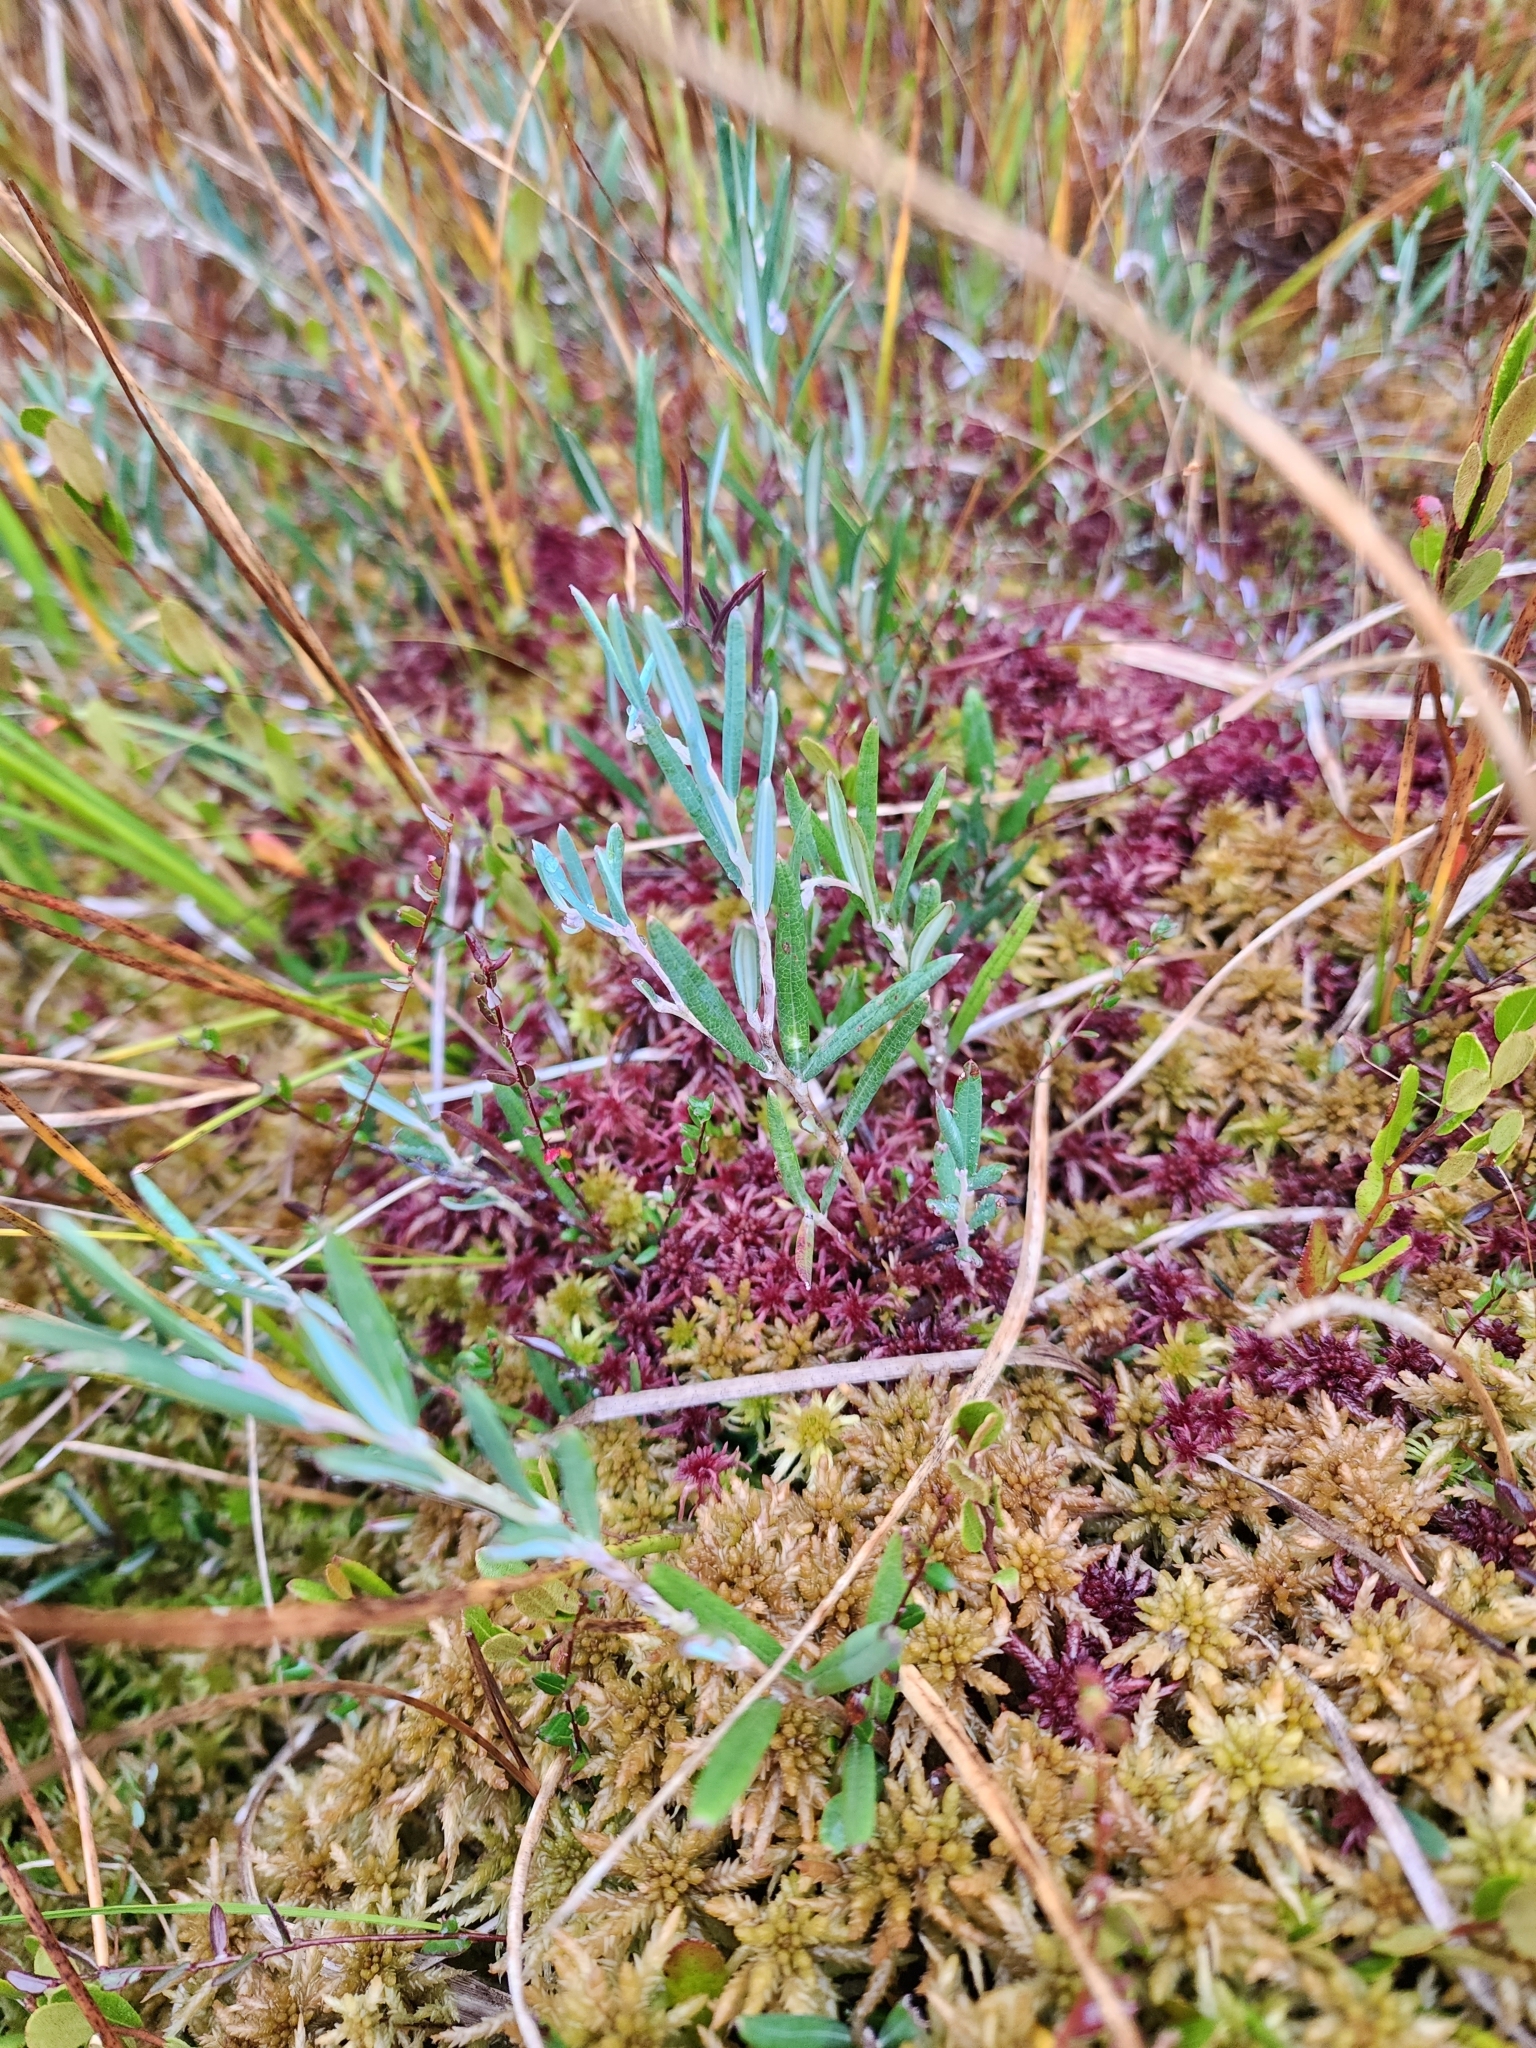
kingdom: Plantae
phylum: Tracheophyta
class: Magnoliopsida
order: Ericales
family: Ericaceae
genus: Andromeda
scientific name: Andromeda polifolia
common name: Bog-rosemary
